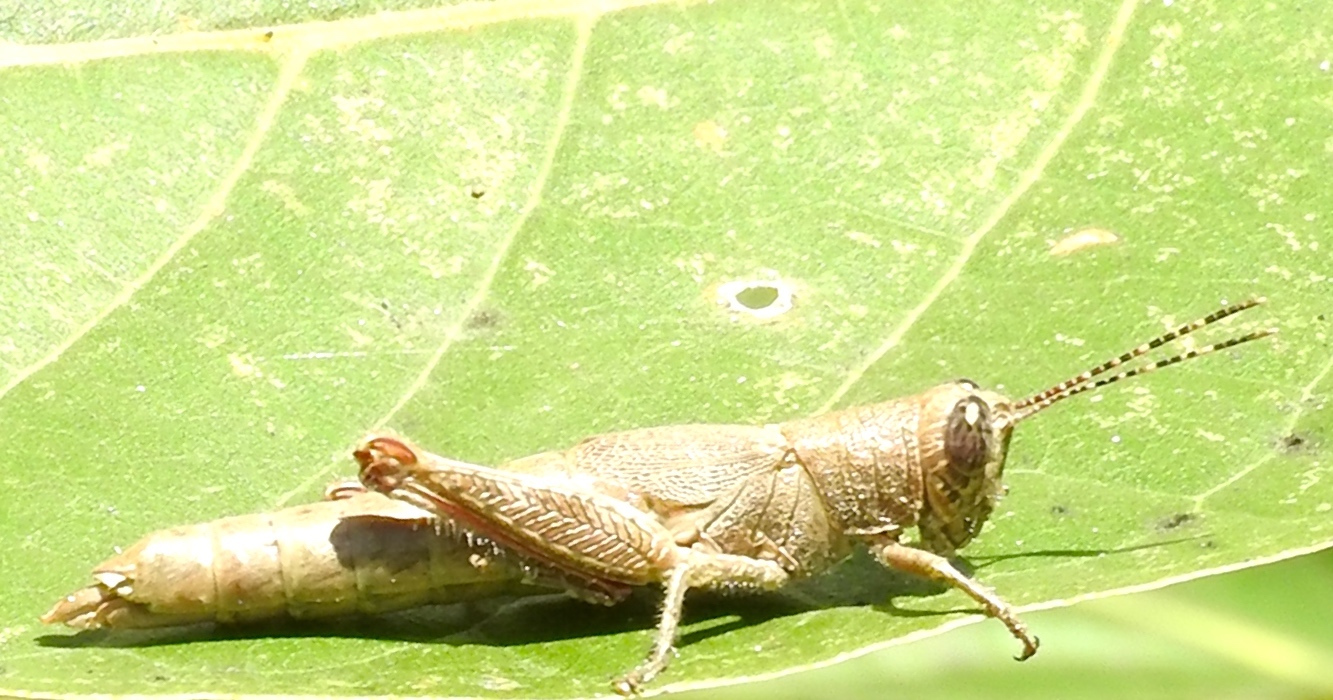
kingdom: Animalia
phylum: Arthropoda
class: Insecta
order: Orthoptera
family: Acrididae
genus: Proctolabus
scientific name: Proctolabus cerciatus
